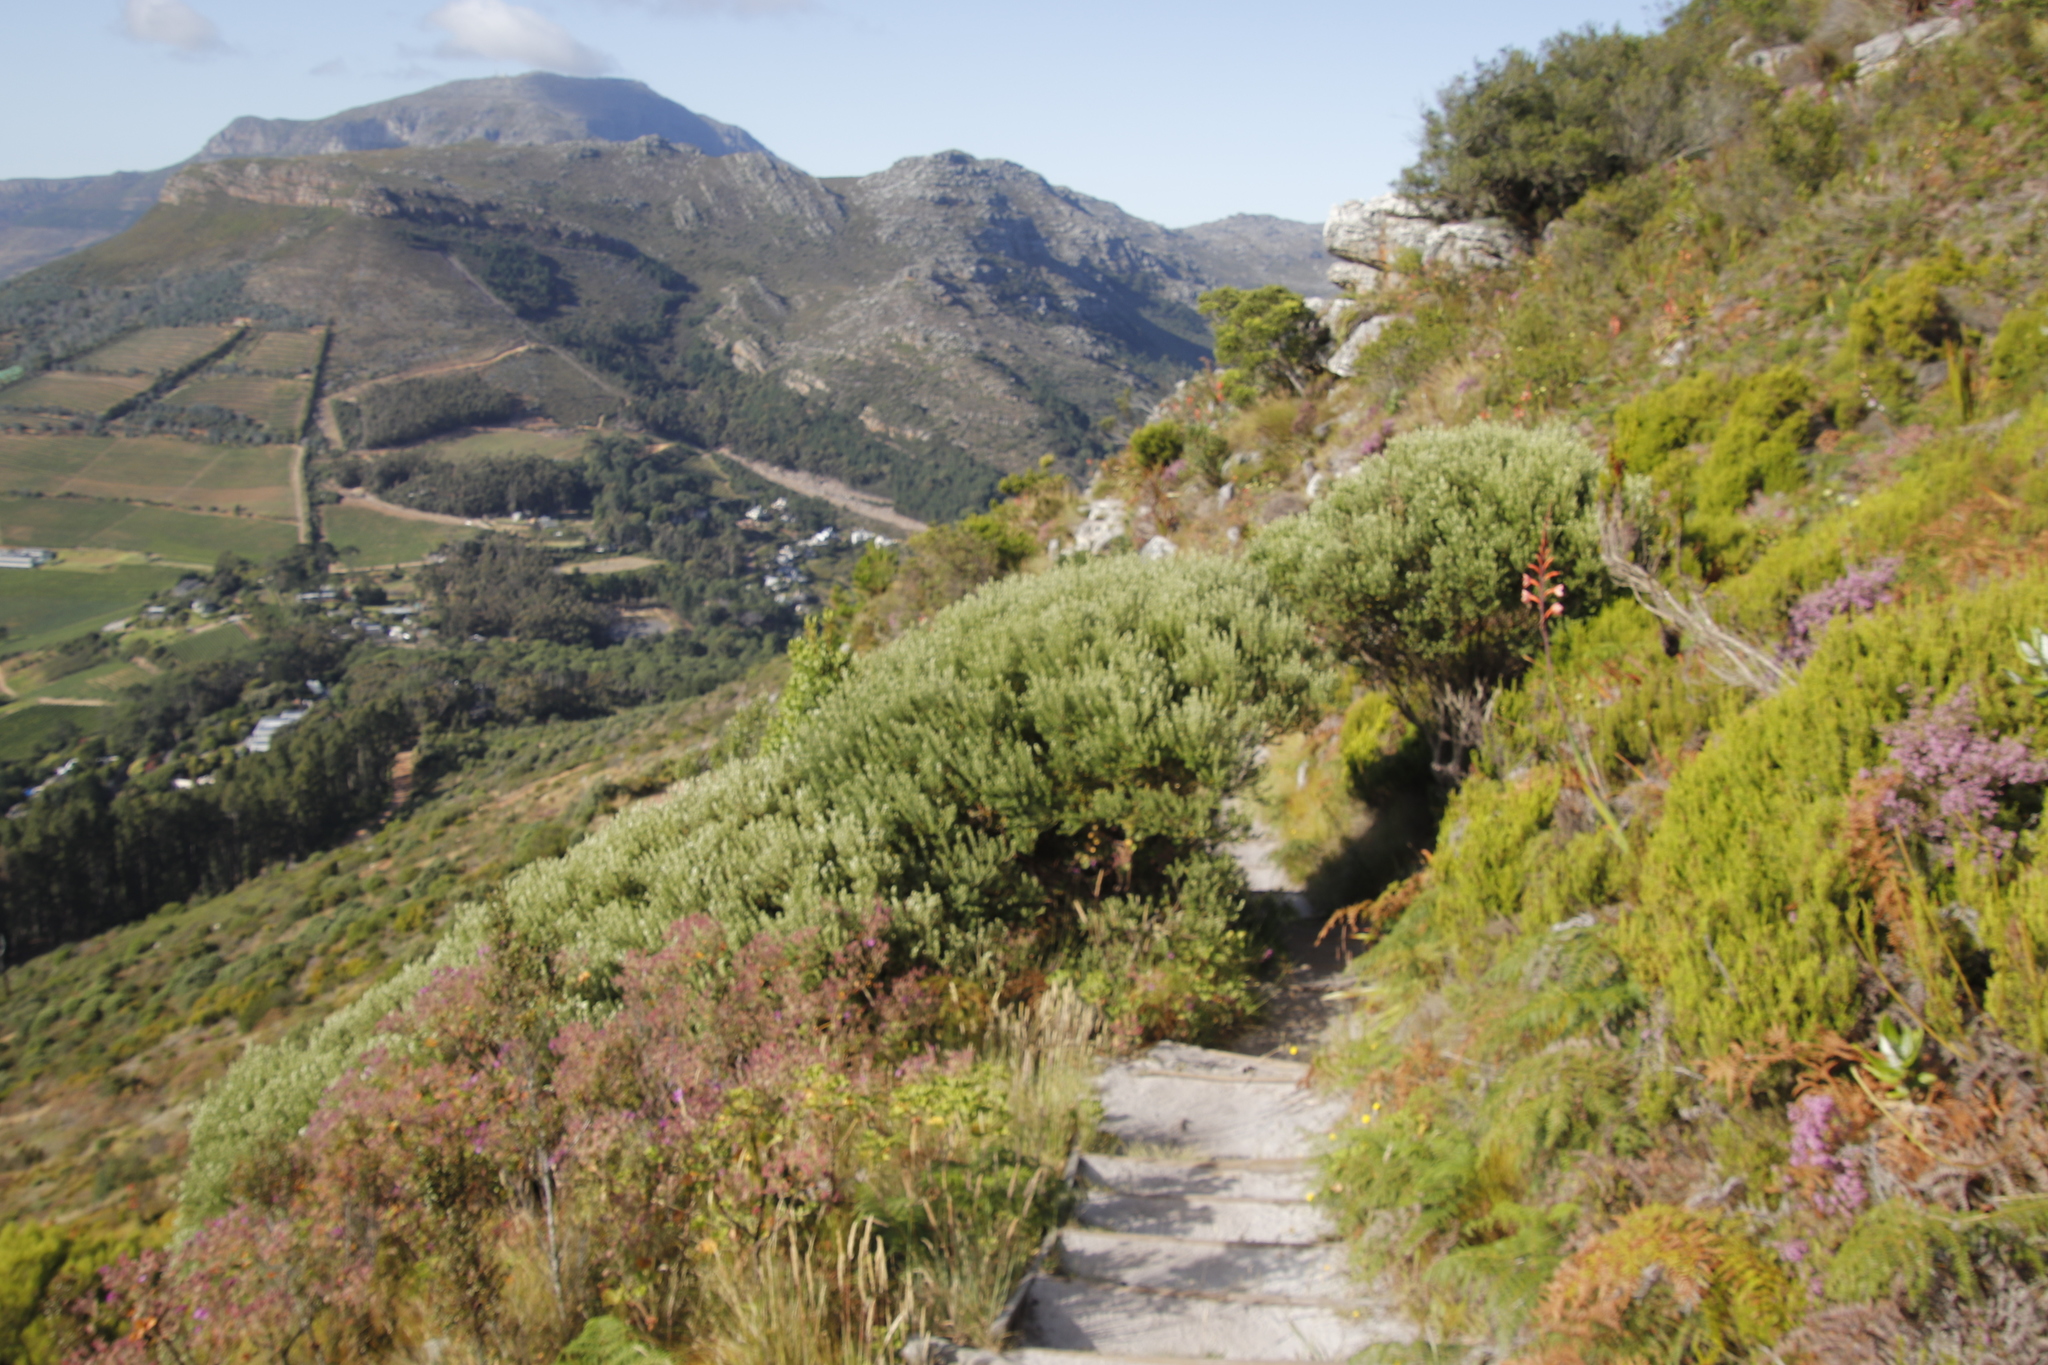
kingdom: Plantae
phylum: Tracheophyta
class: Magnoliopsida
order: Rosales
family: Rhamnaceae
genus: Phylica
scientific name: Phylica buxifolia
